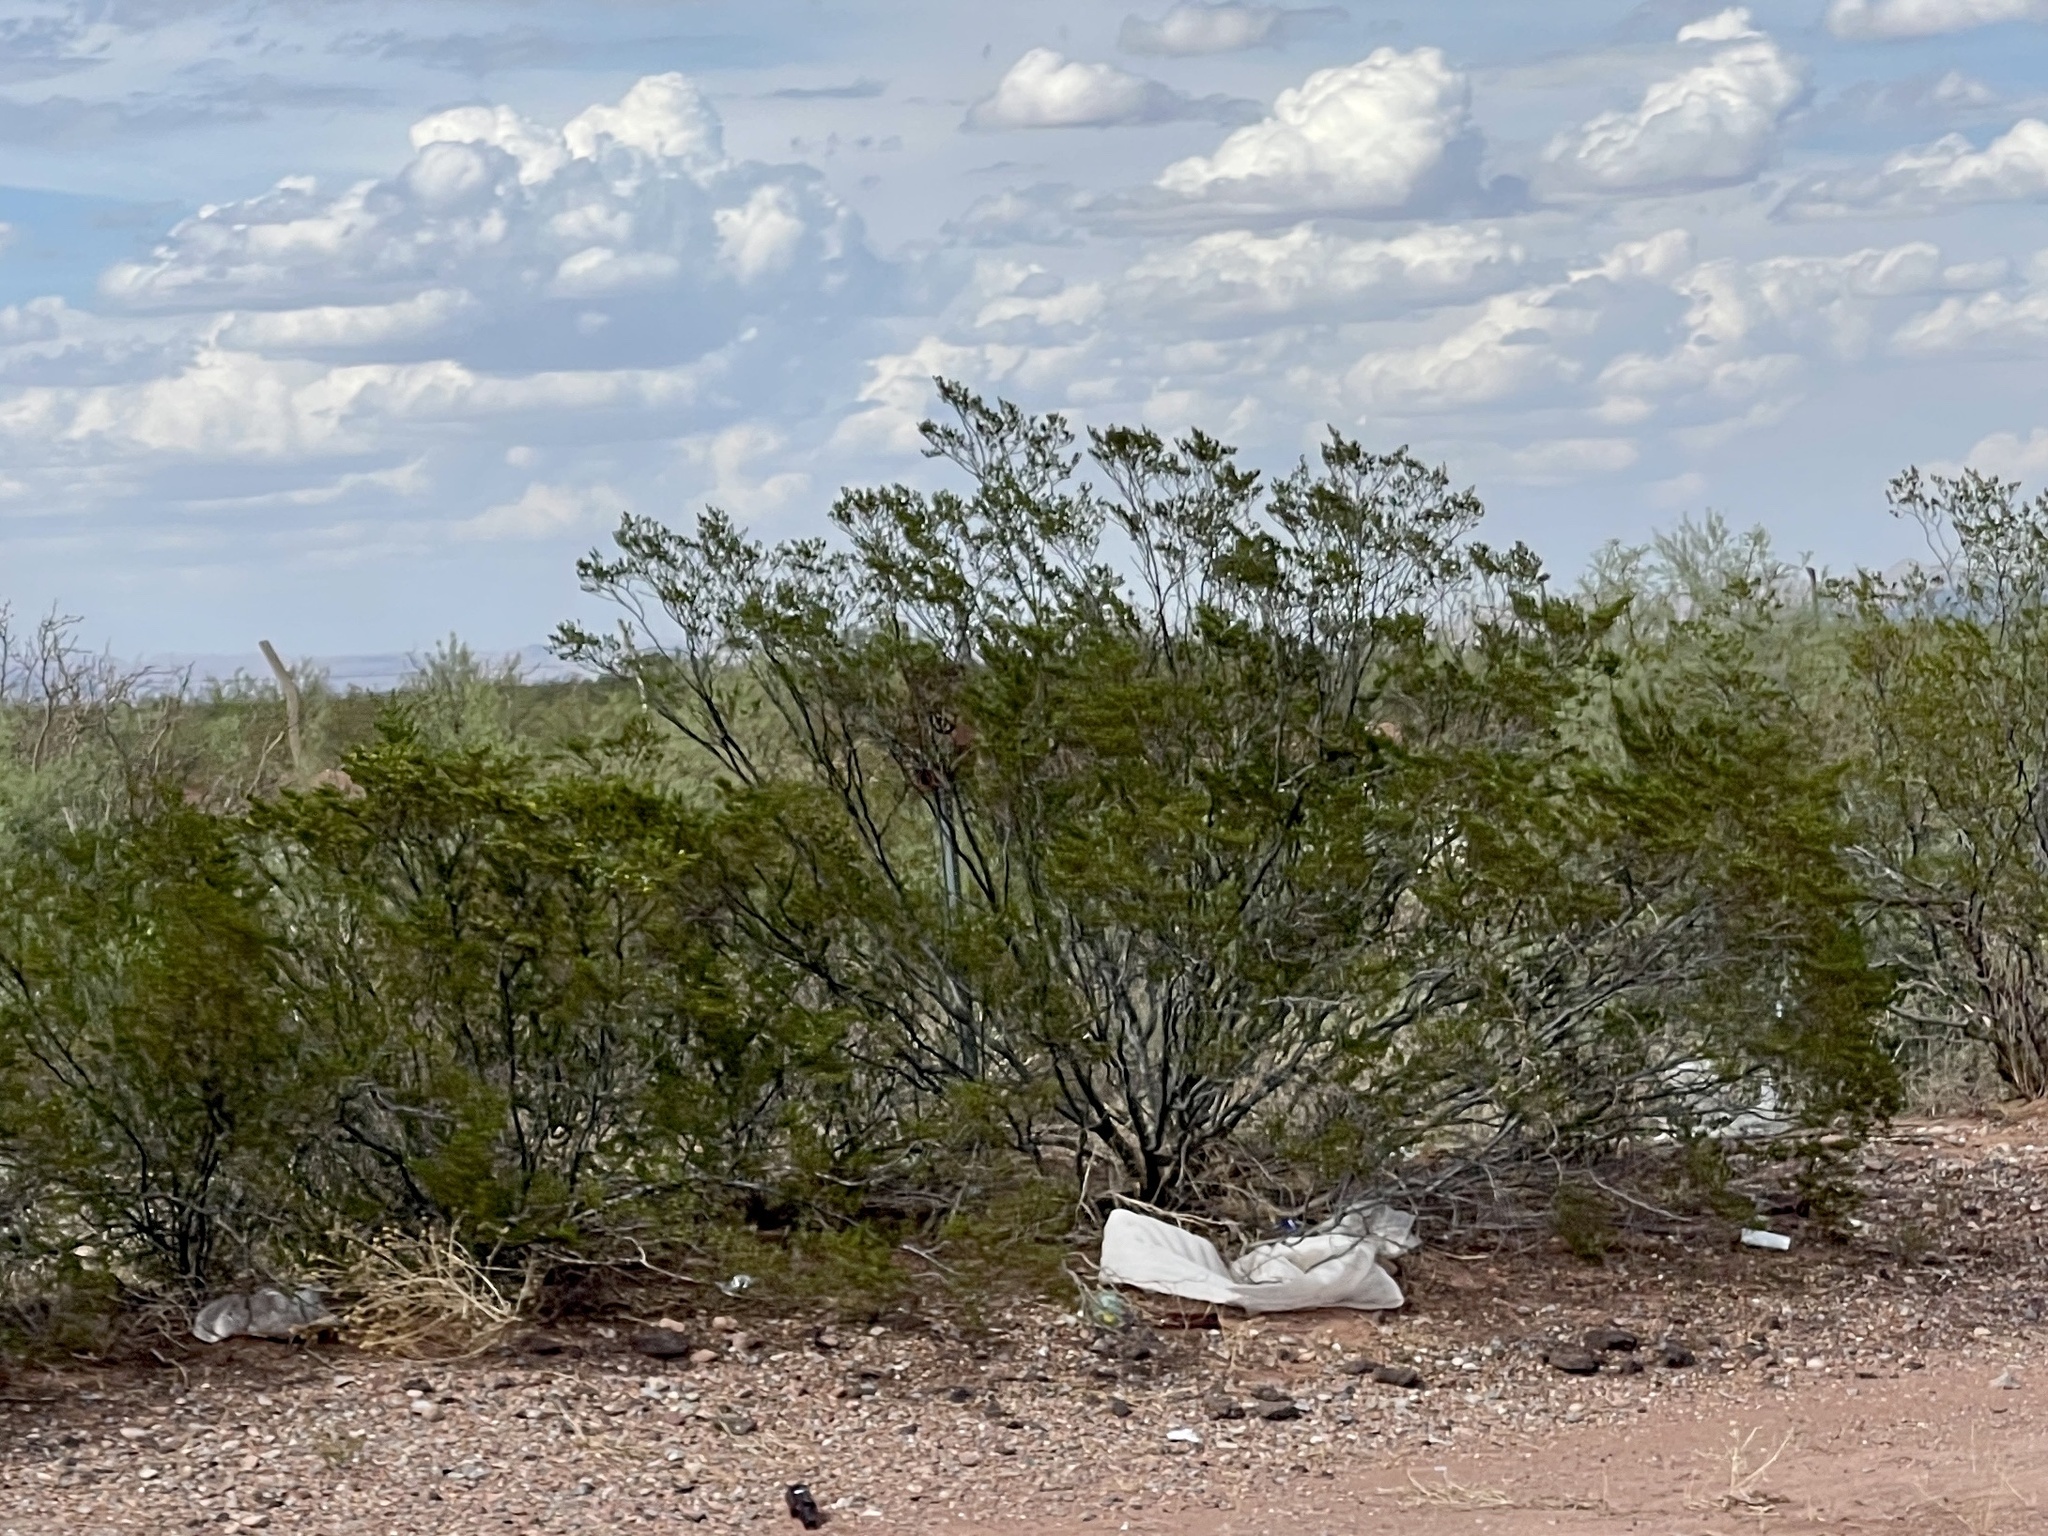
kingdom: Plantae
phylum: Tracheophyta
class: Magnoliopsida
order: Zygophyllales
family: Zygophyllaceae
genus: Larrea
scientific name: Larrea tridentata
